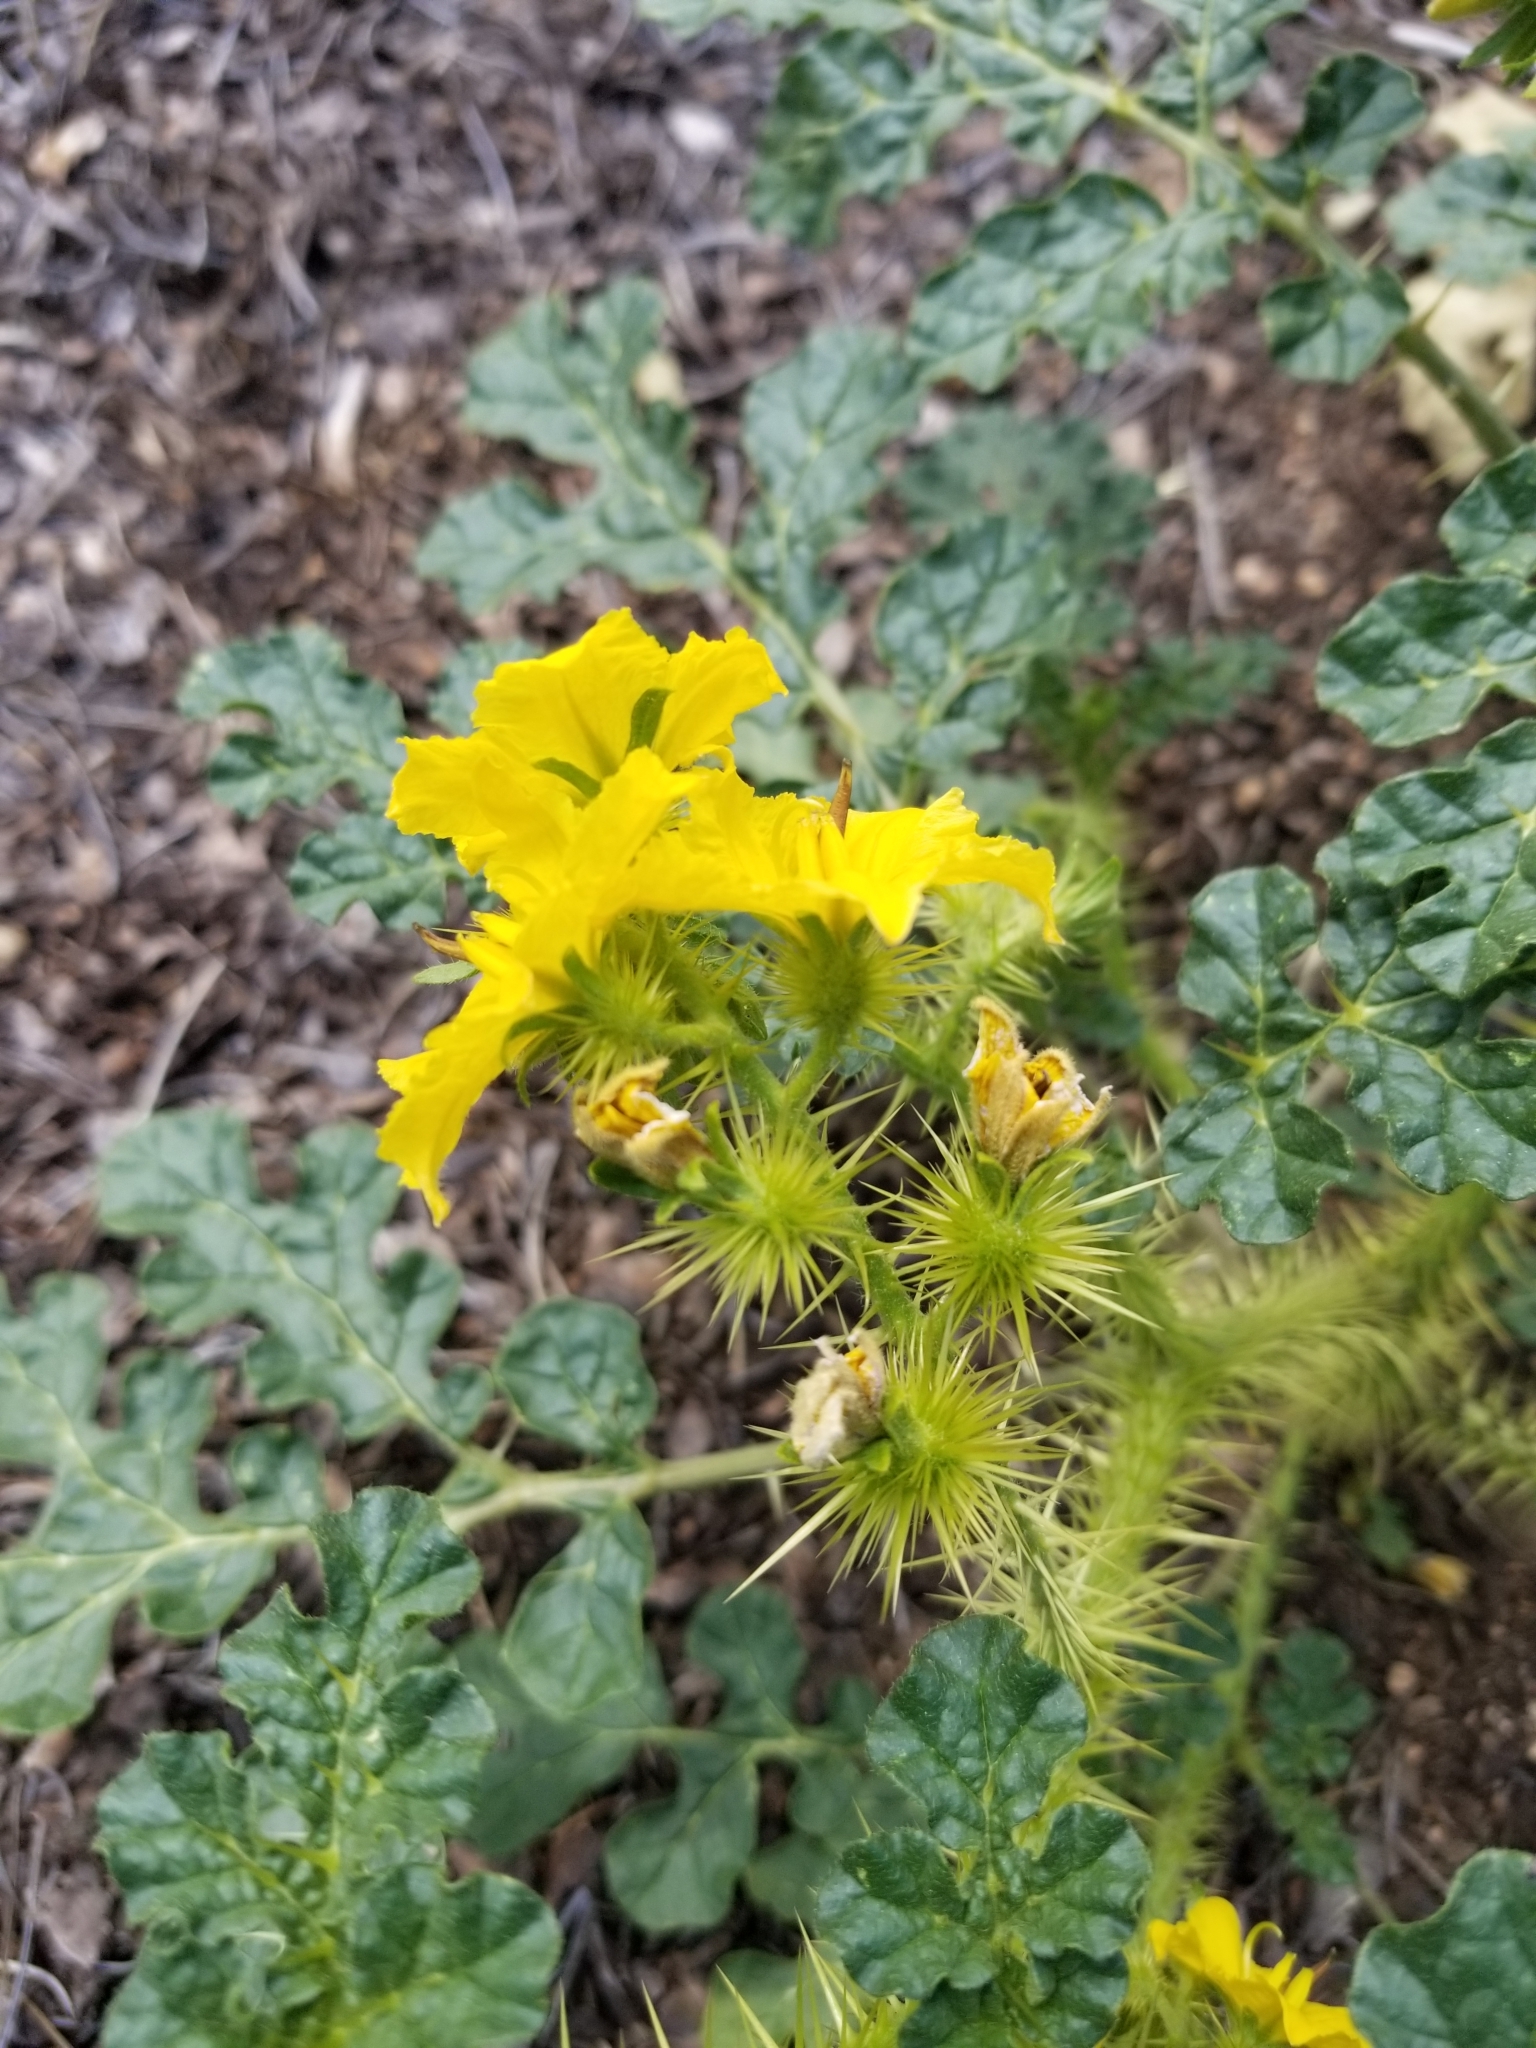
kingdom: Plantae
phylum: Tracheophyta
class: Magnoliopsida
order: Solanales
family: Solanaceae
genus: Solanum
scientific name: Solanum angustifolium
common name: Buffalobur nightshade
